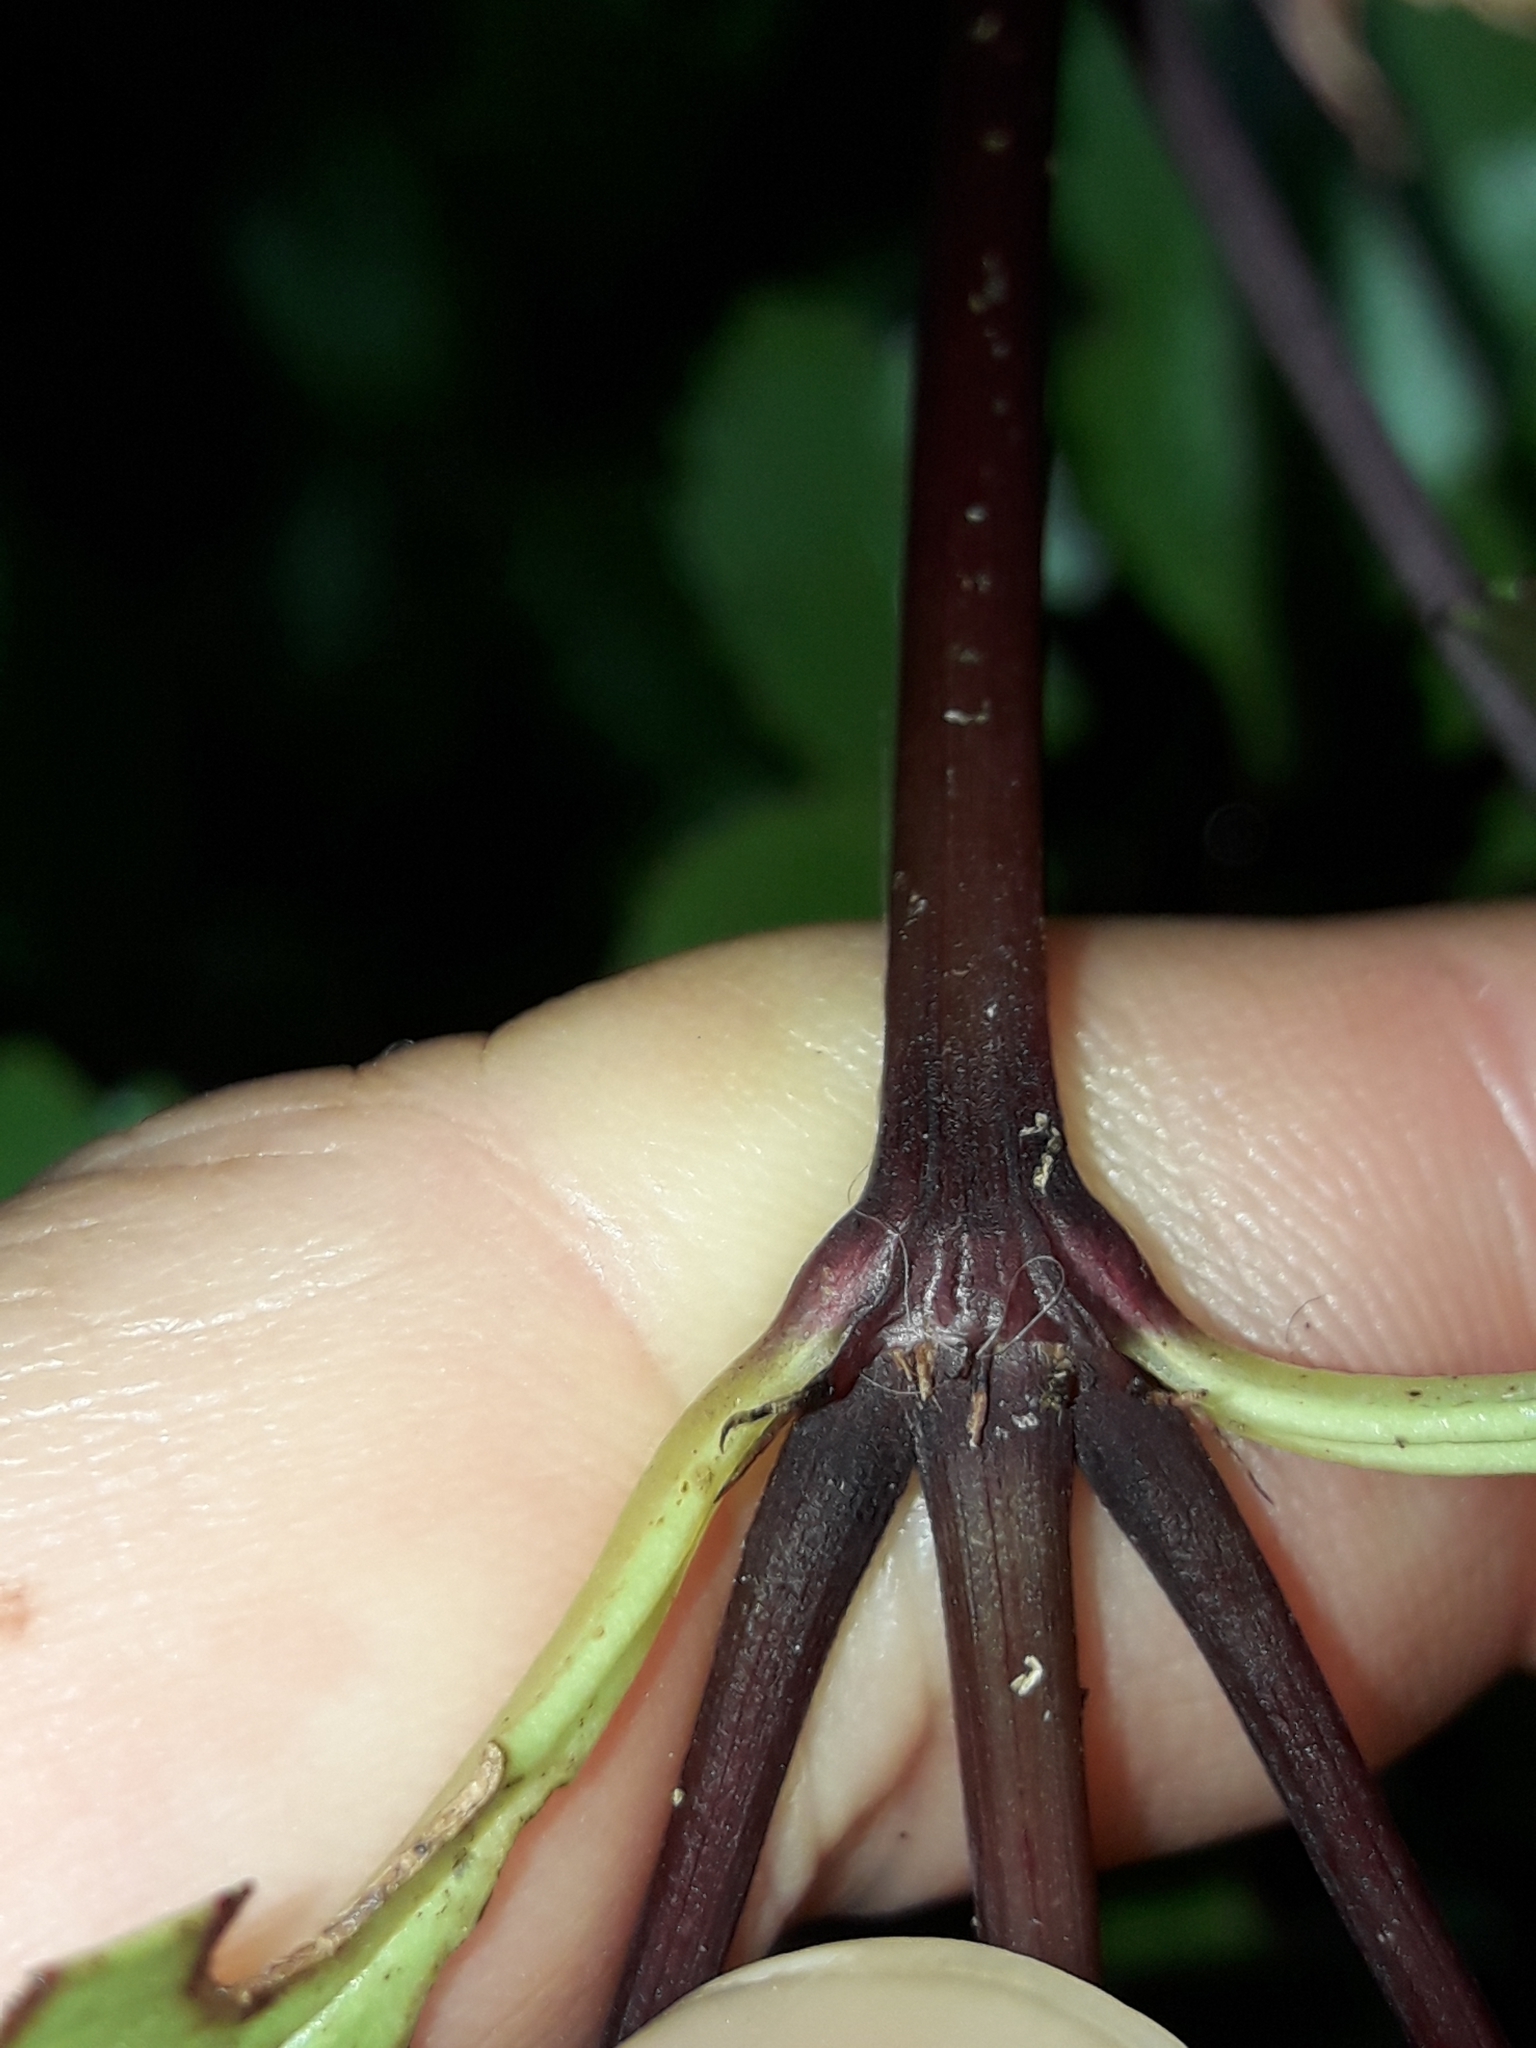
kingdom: Plantae
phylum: Tracheophyta
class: Magnoliopsida
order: Chloranthales
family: Chloranthaceae
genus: Ascarina
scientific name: Ascarina lucida
